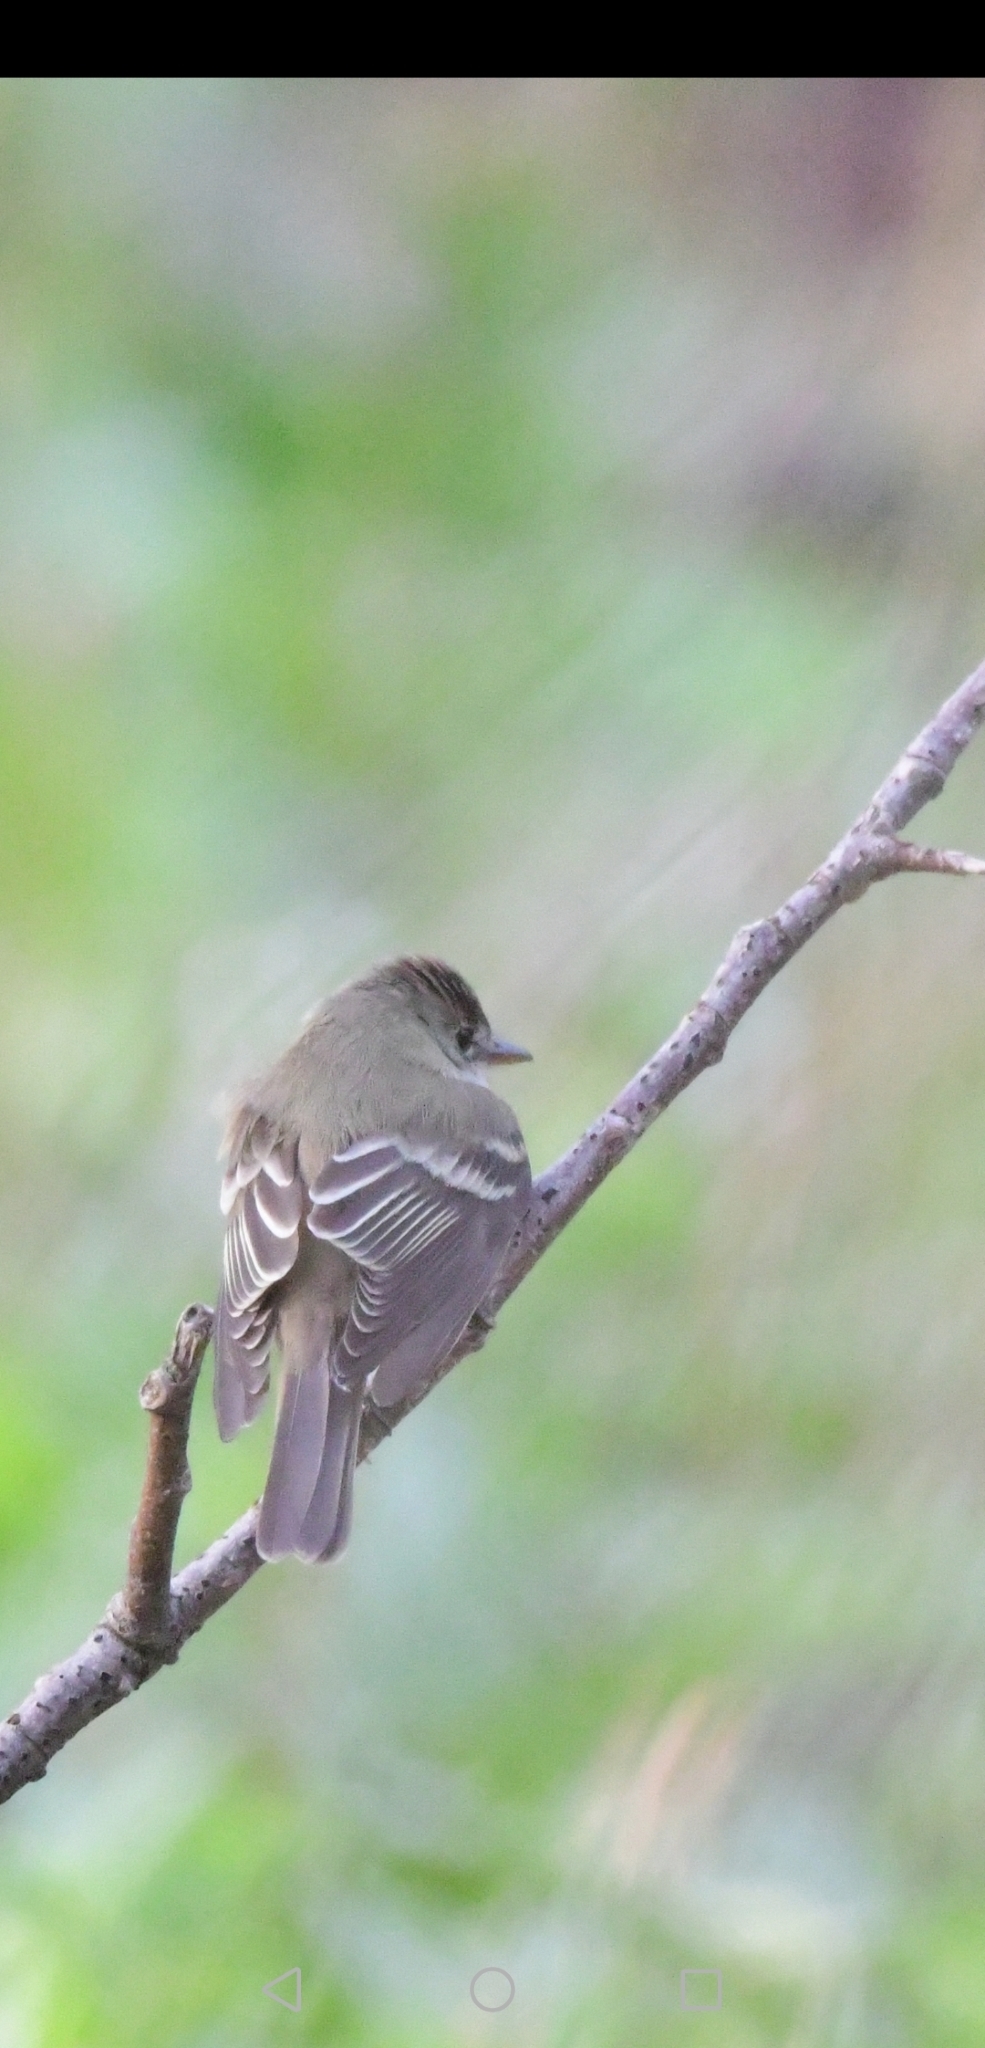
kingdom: Animalia
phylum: Chordata
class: Aves
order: Passeriformes
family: Tyrannidae
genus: Contopus
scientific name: Contopus virens
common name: Eastern wood-pewee
